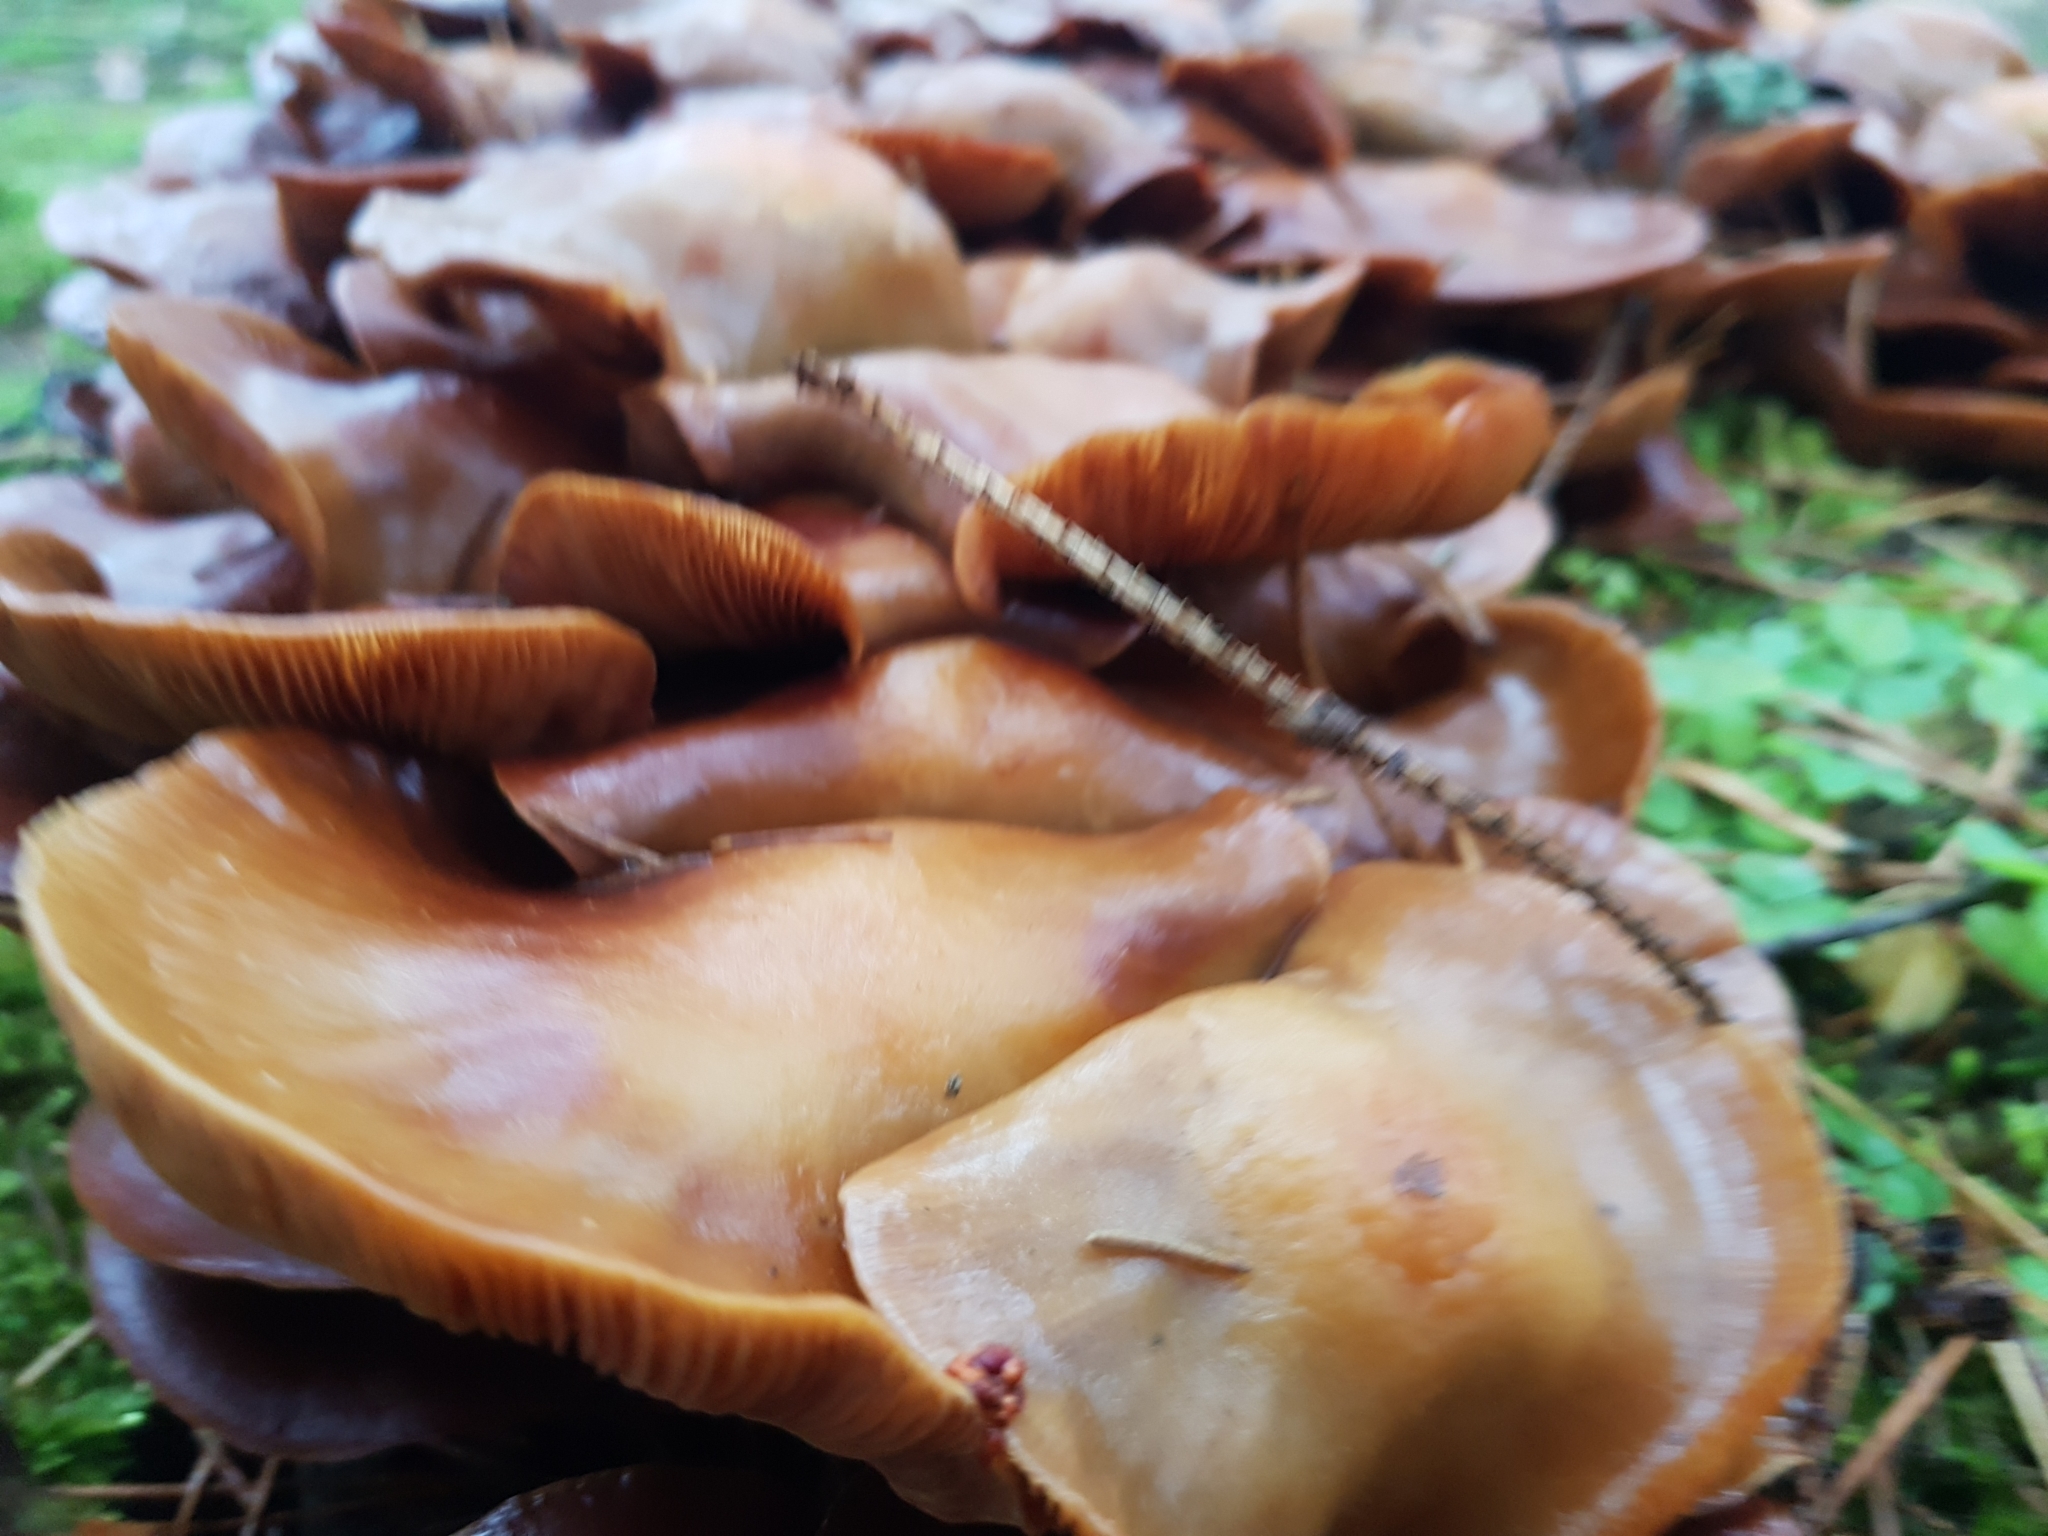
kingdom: Fungi
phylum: Basidiomycota
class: Agaricomycetes
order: Agaricales
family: Strophariaceae
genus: Kuehneromyces
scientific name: Kuehneromyces mutabilis
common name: Sheathed woodtuft
